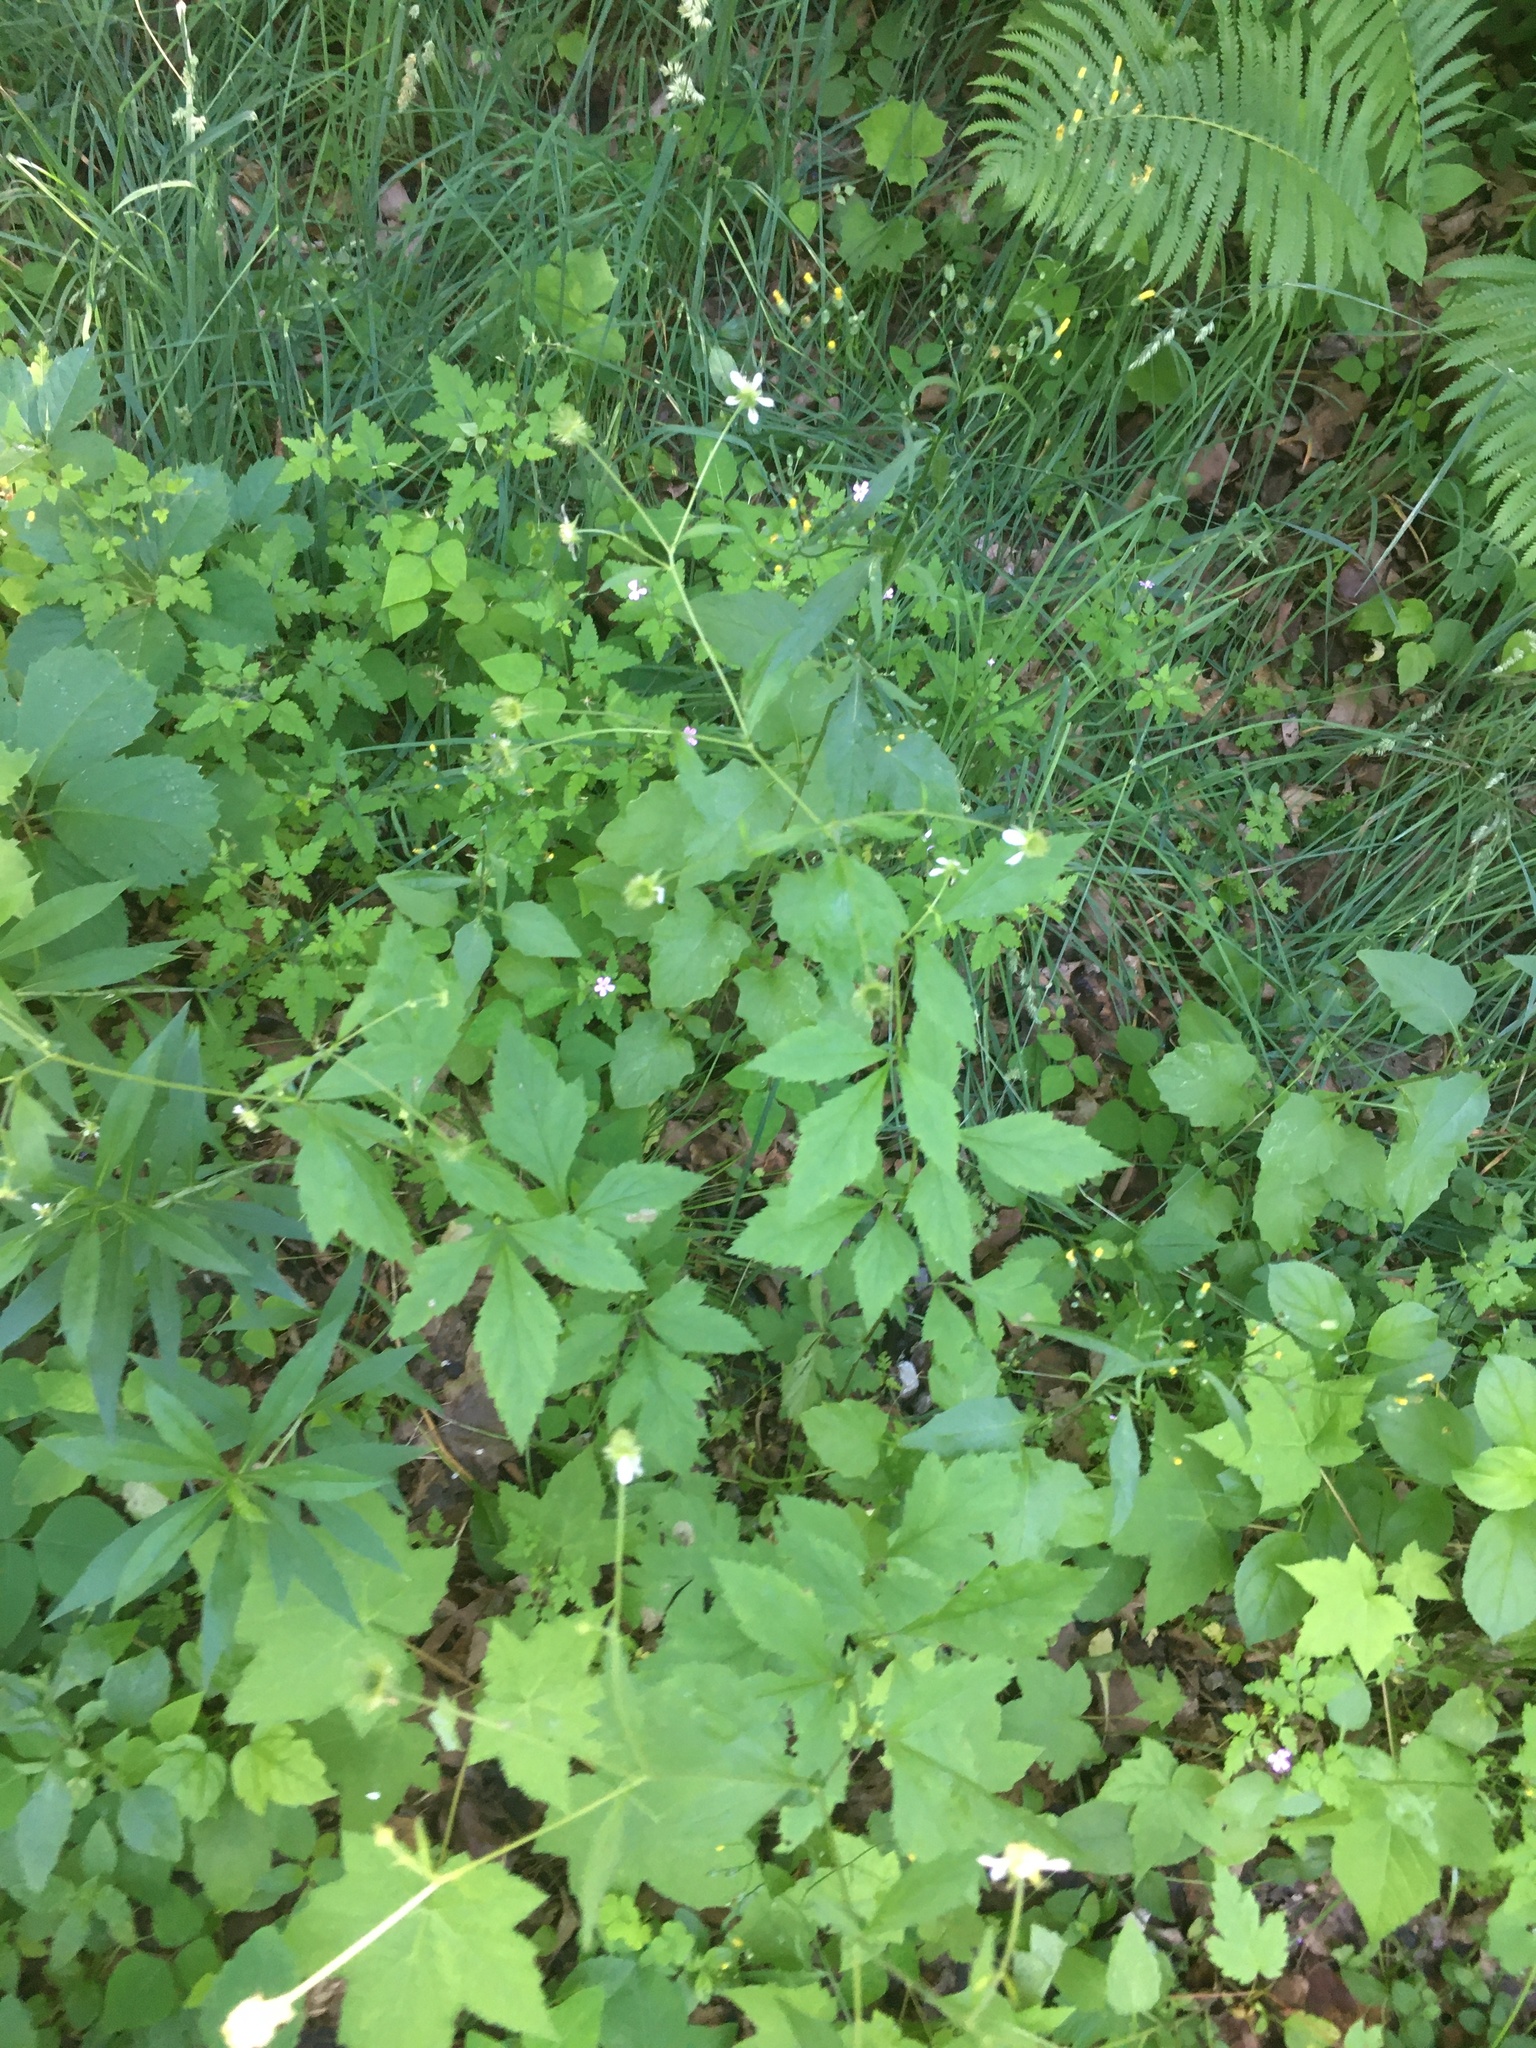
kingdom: Plantae
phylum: Tracheophyta
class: Magnoliopsida
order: Rosales
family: Rosaceae
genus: Geum
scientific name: Geum canadense
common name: White avens
